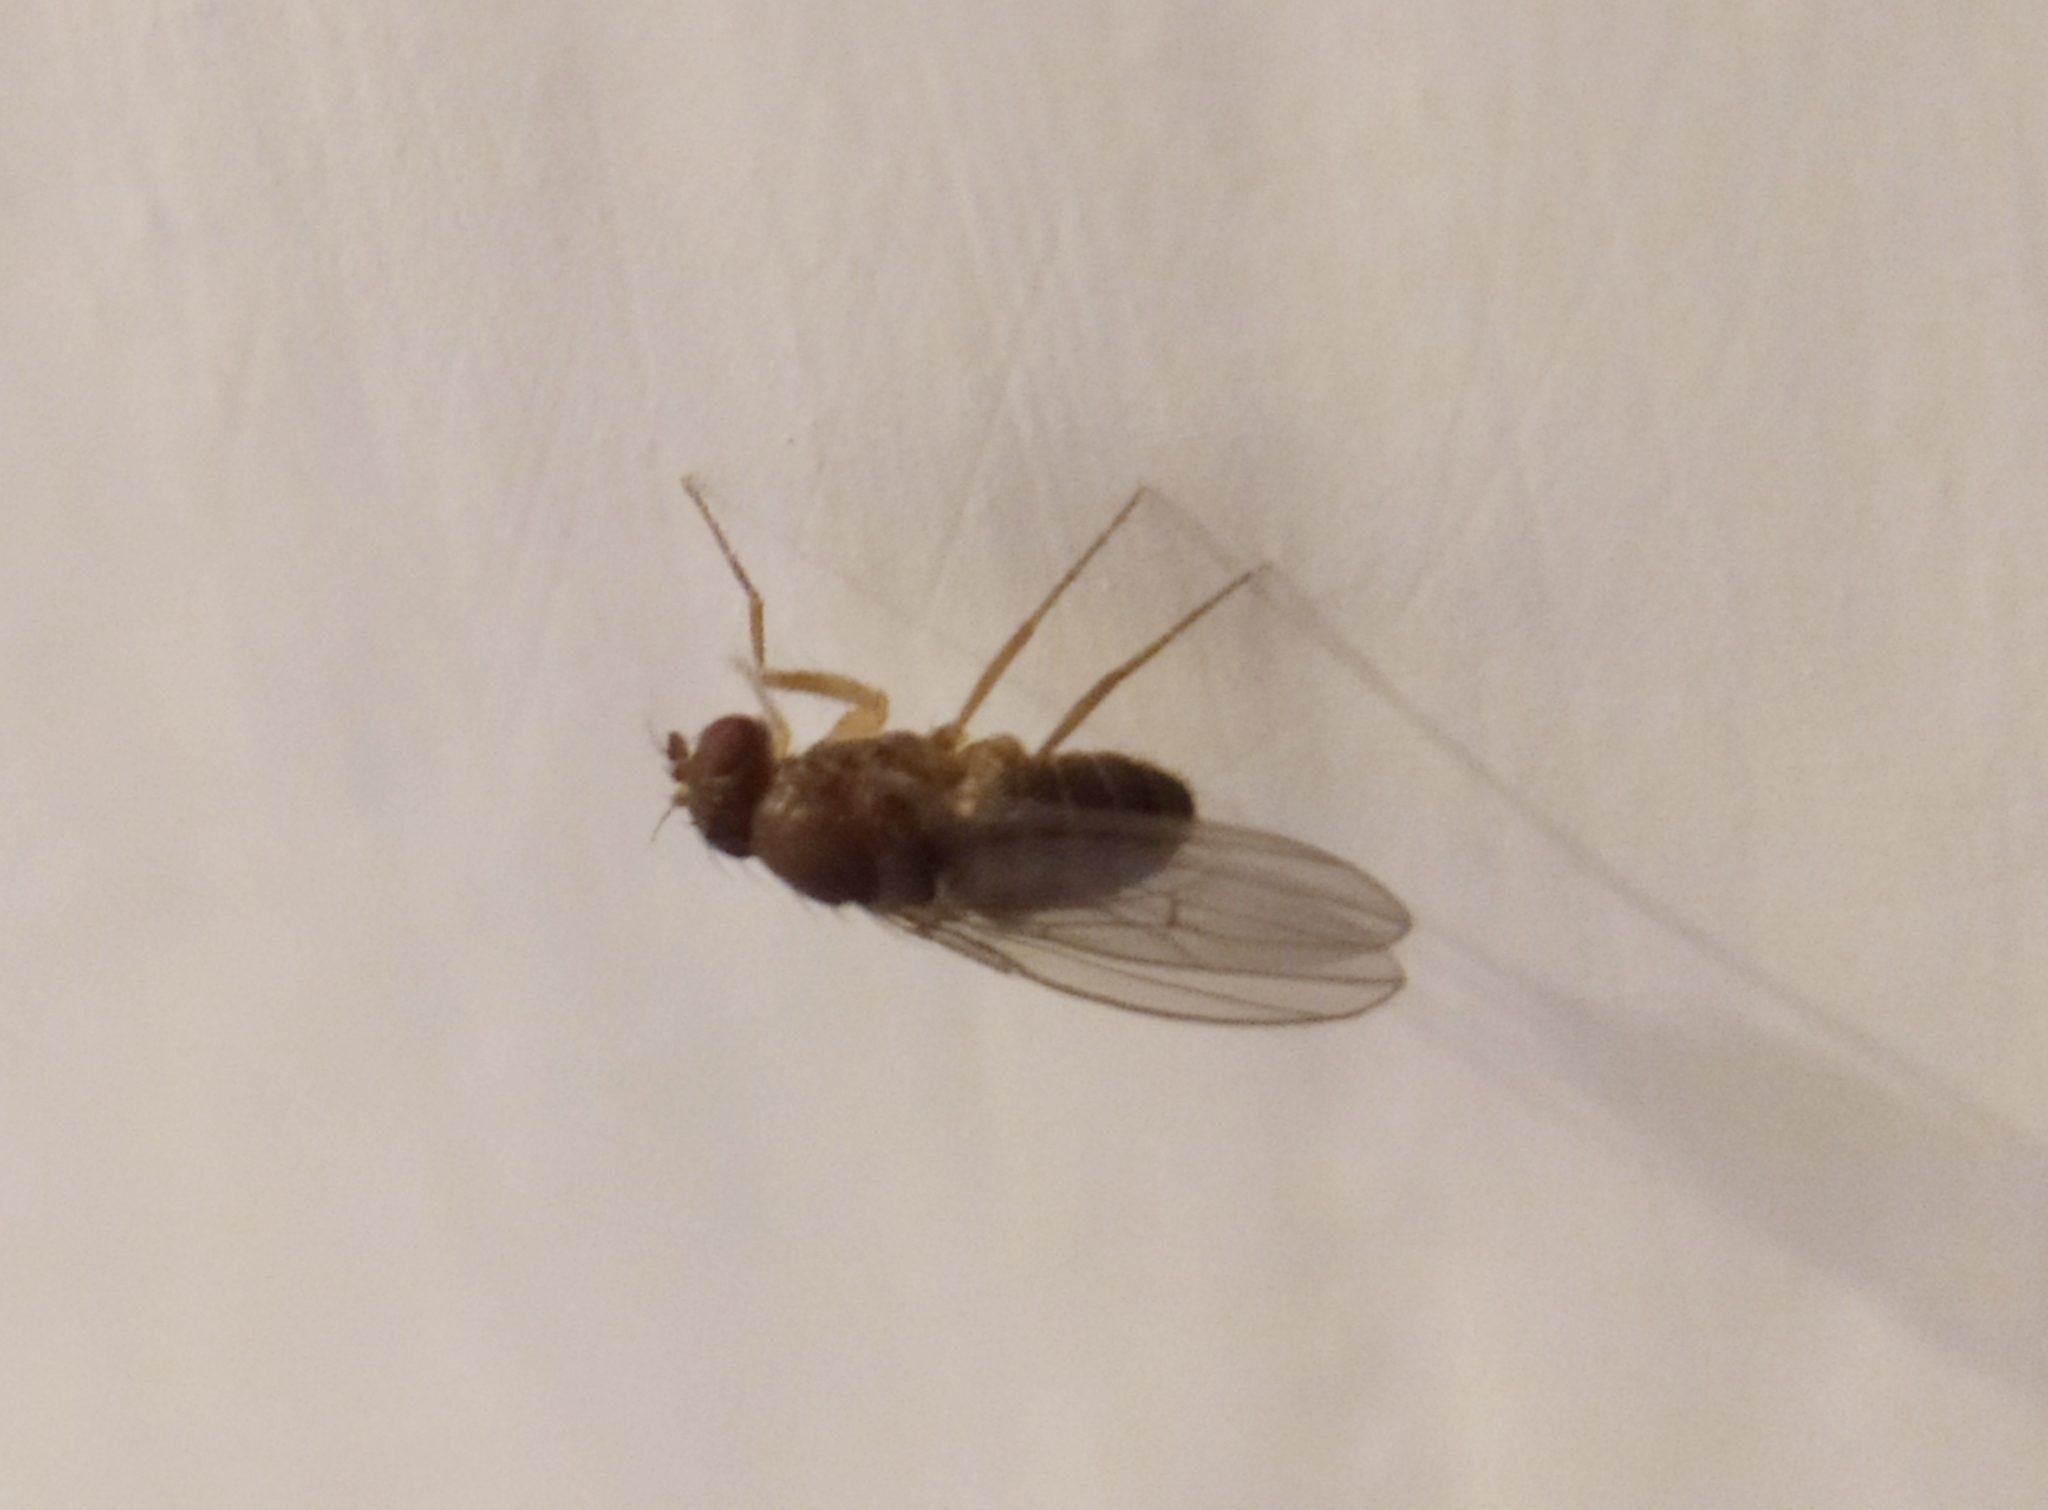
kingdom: Animalia
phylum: Arthropoda
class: Insecta
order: Diptera
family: Drosophilidae
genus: Drosophila
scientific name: Drosophila funebris
